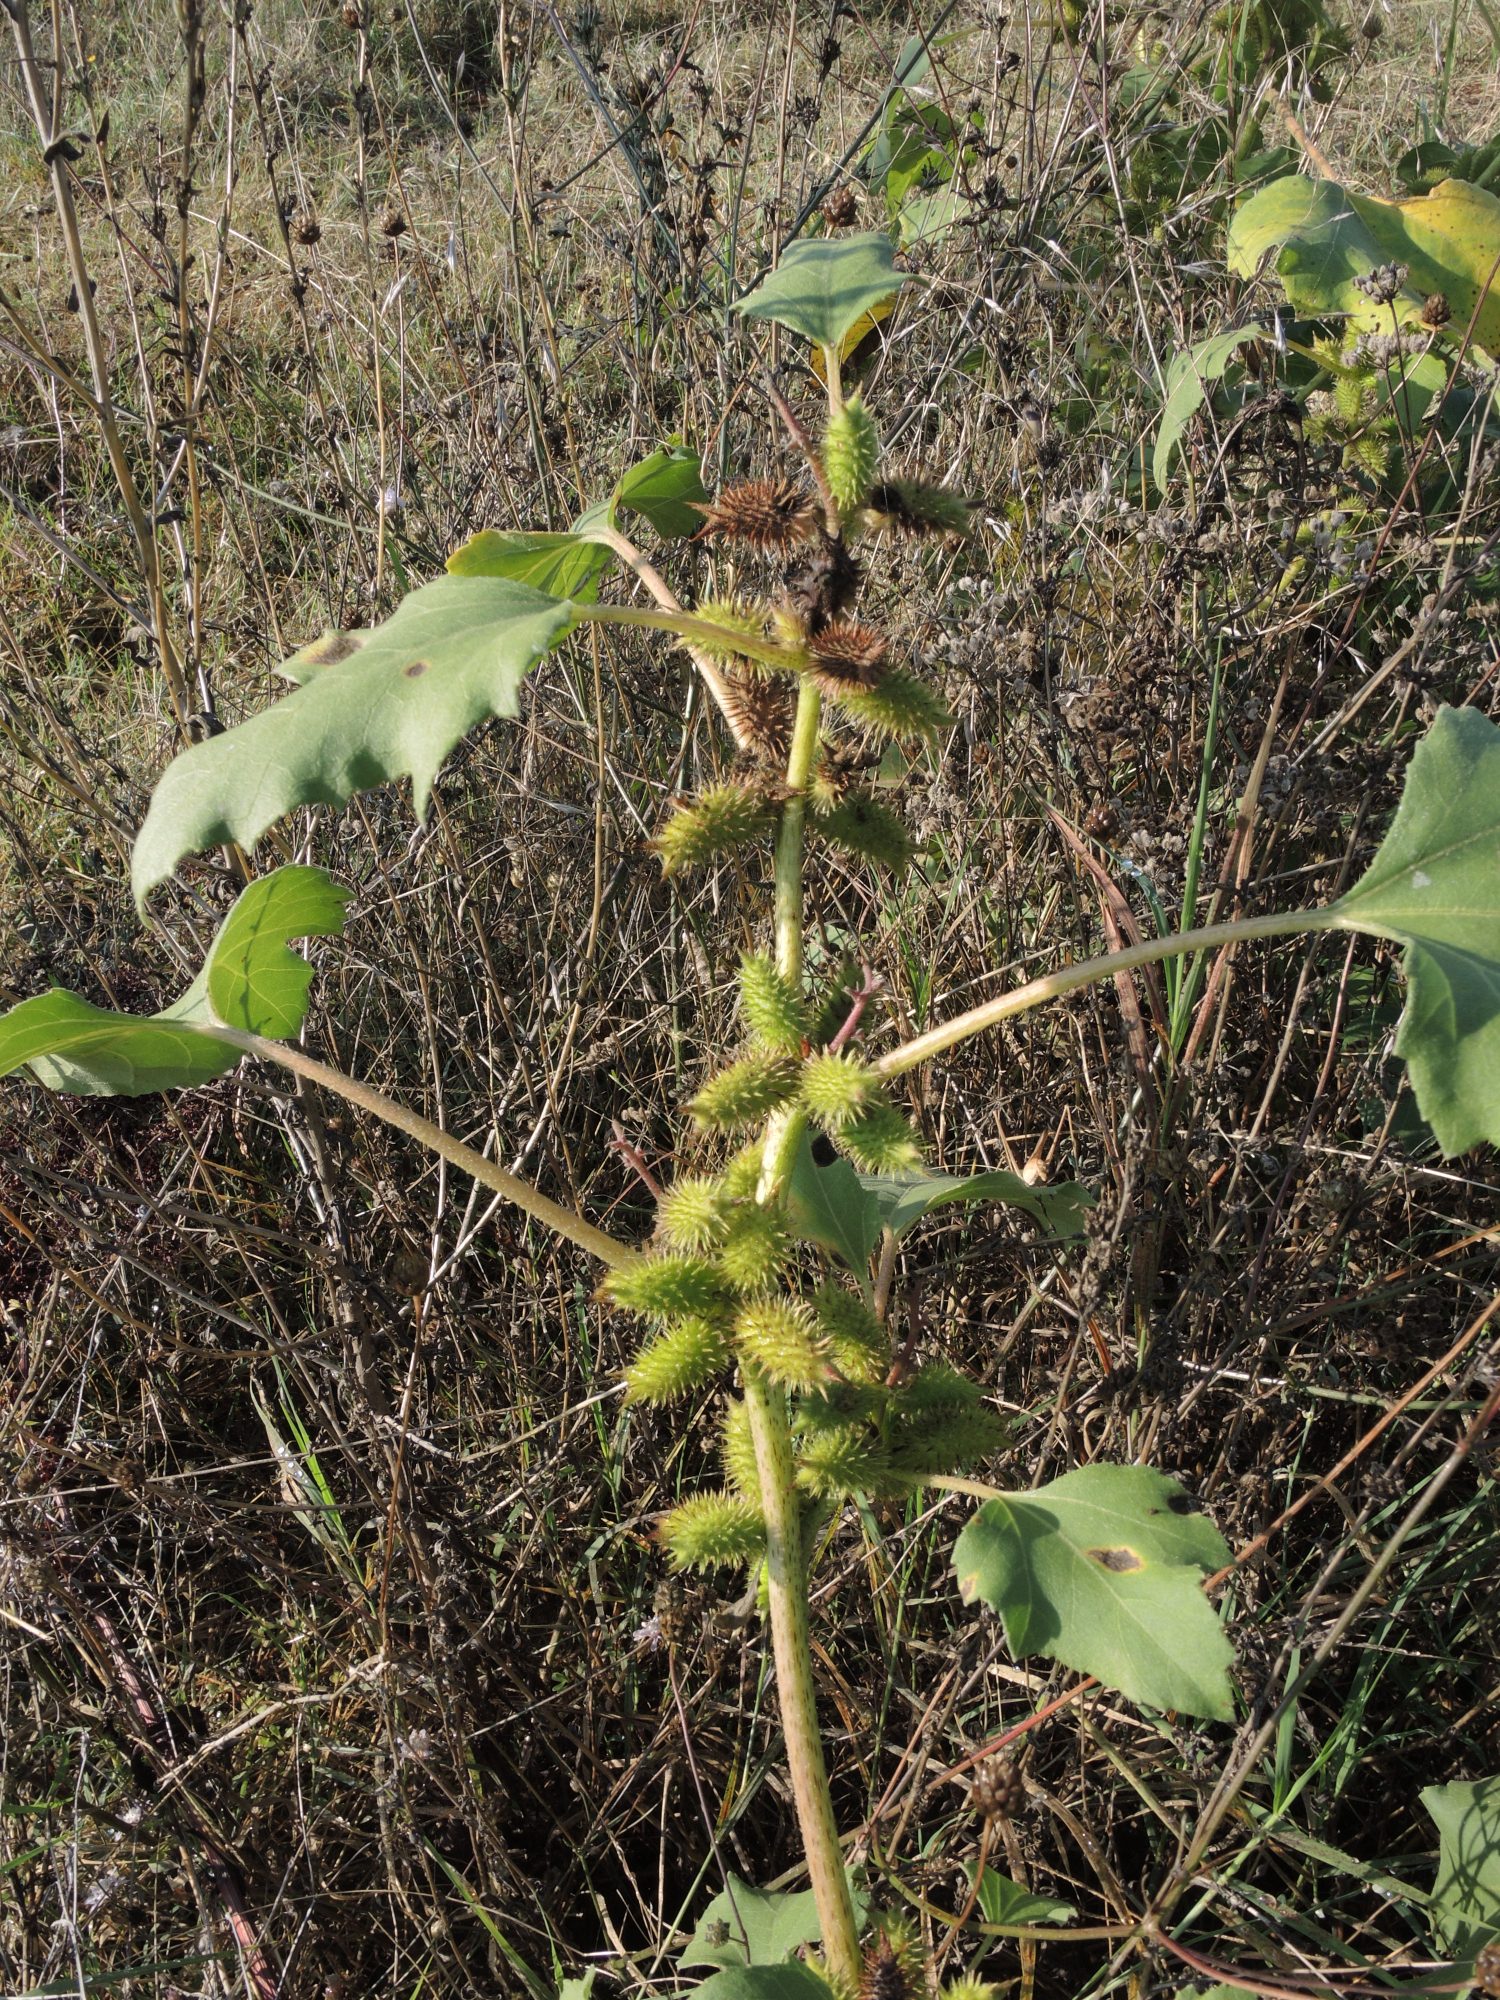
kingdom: Plantae
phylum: Tracheophyta
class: Magnoliopsida
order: Asterales
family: Asteraceae
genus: Xanthium
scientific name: Xanthium strumarium
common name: Rough cocklebur
